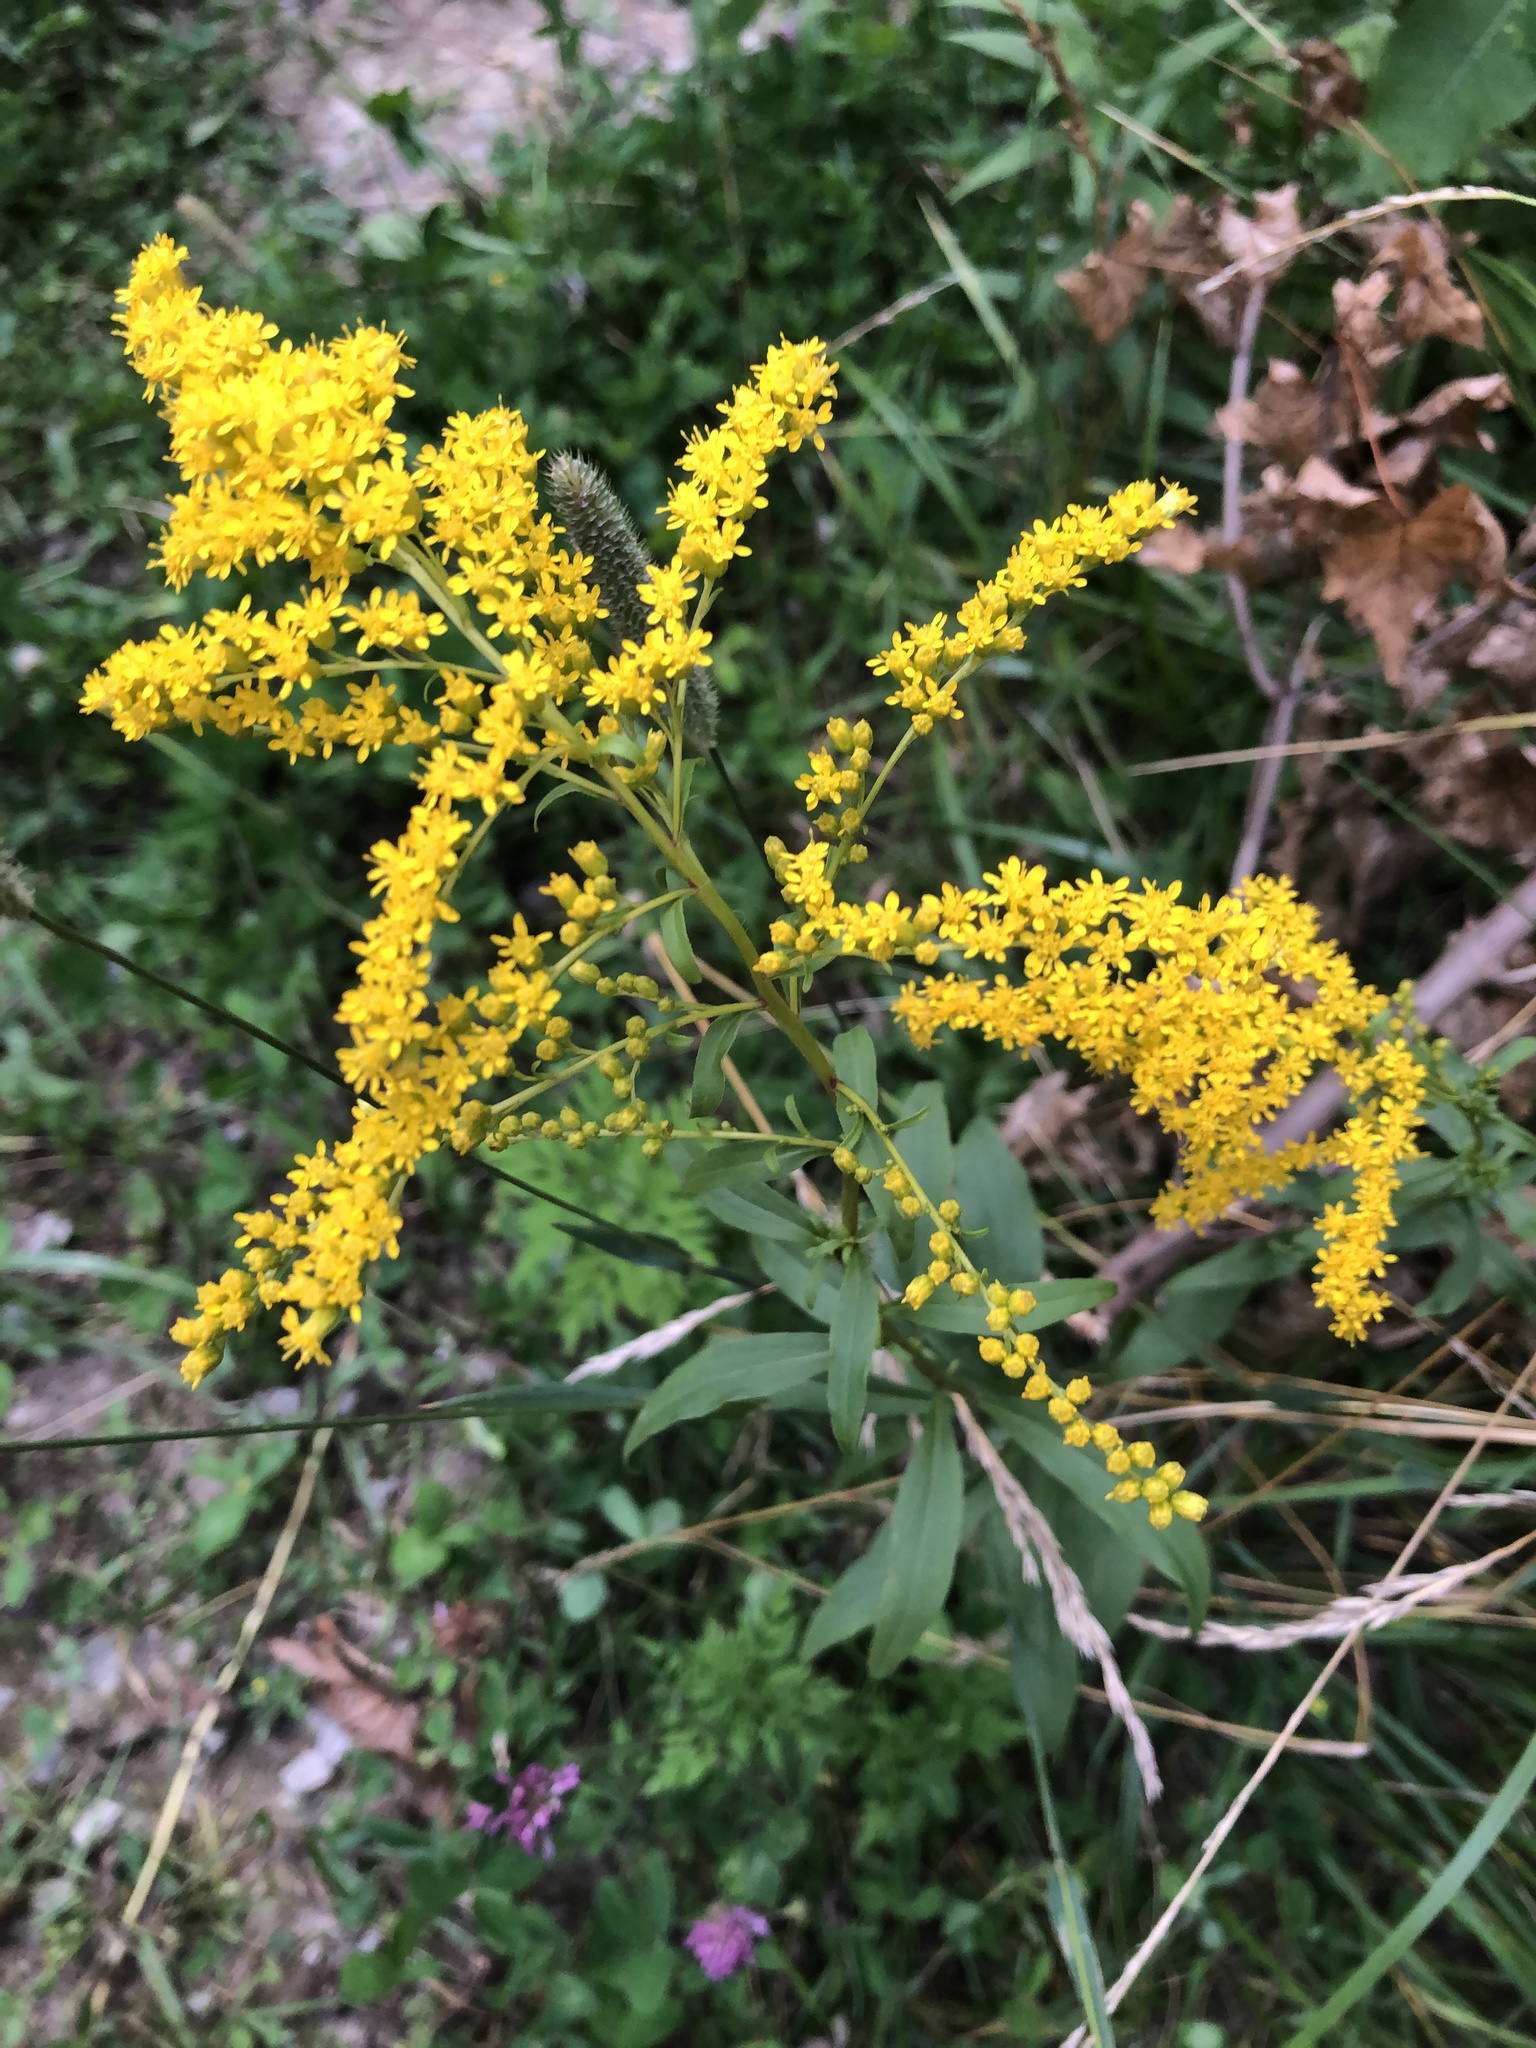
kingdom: Plantae
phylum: Tracheophyta
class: Magnoliopsida
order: Asterales
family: Asteraceae
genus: Solidago
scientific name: Solidago juncea
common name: Early goldenrod
